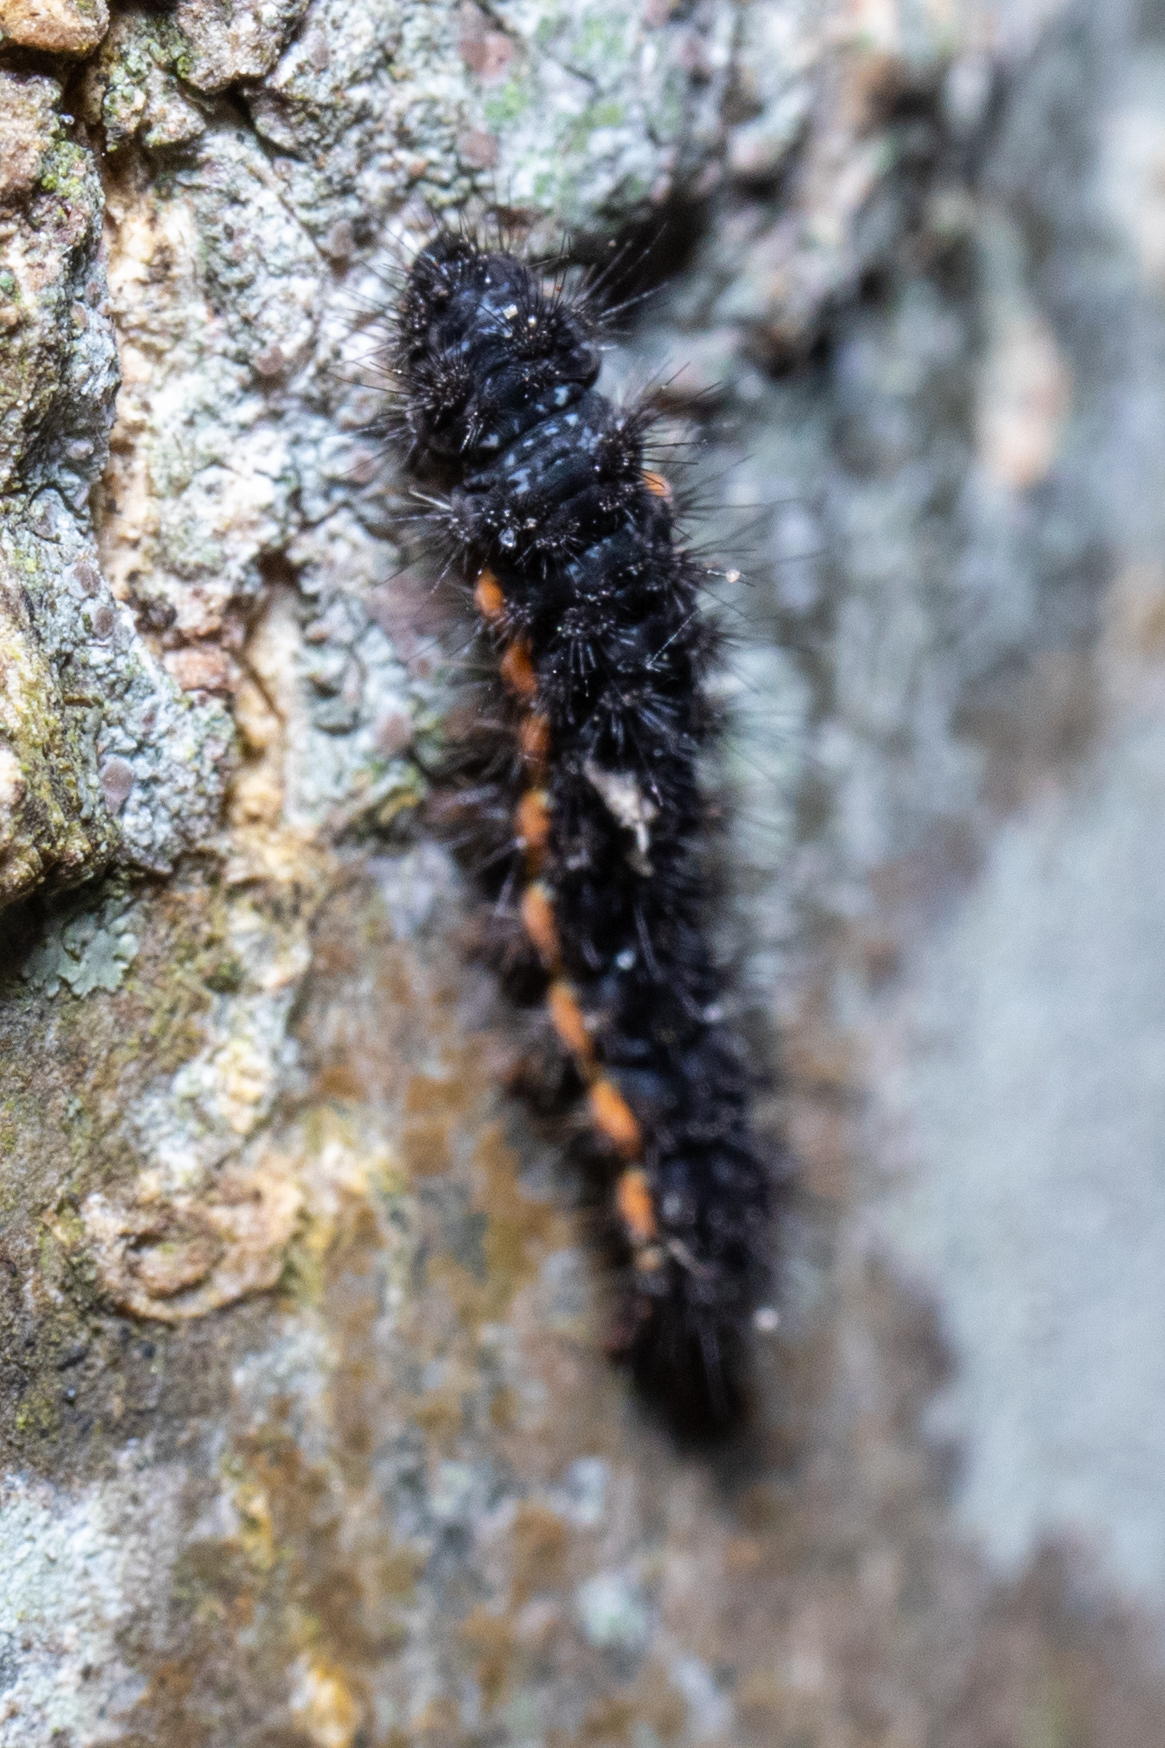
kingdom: Animalia
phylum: Arthropoda
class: Insecta
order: Lepidoptera
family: Erebidae
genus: Nyea
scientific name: Nyea lurideola
